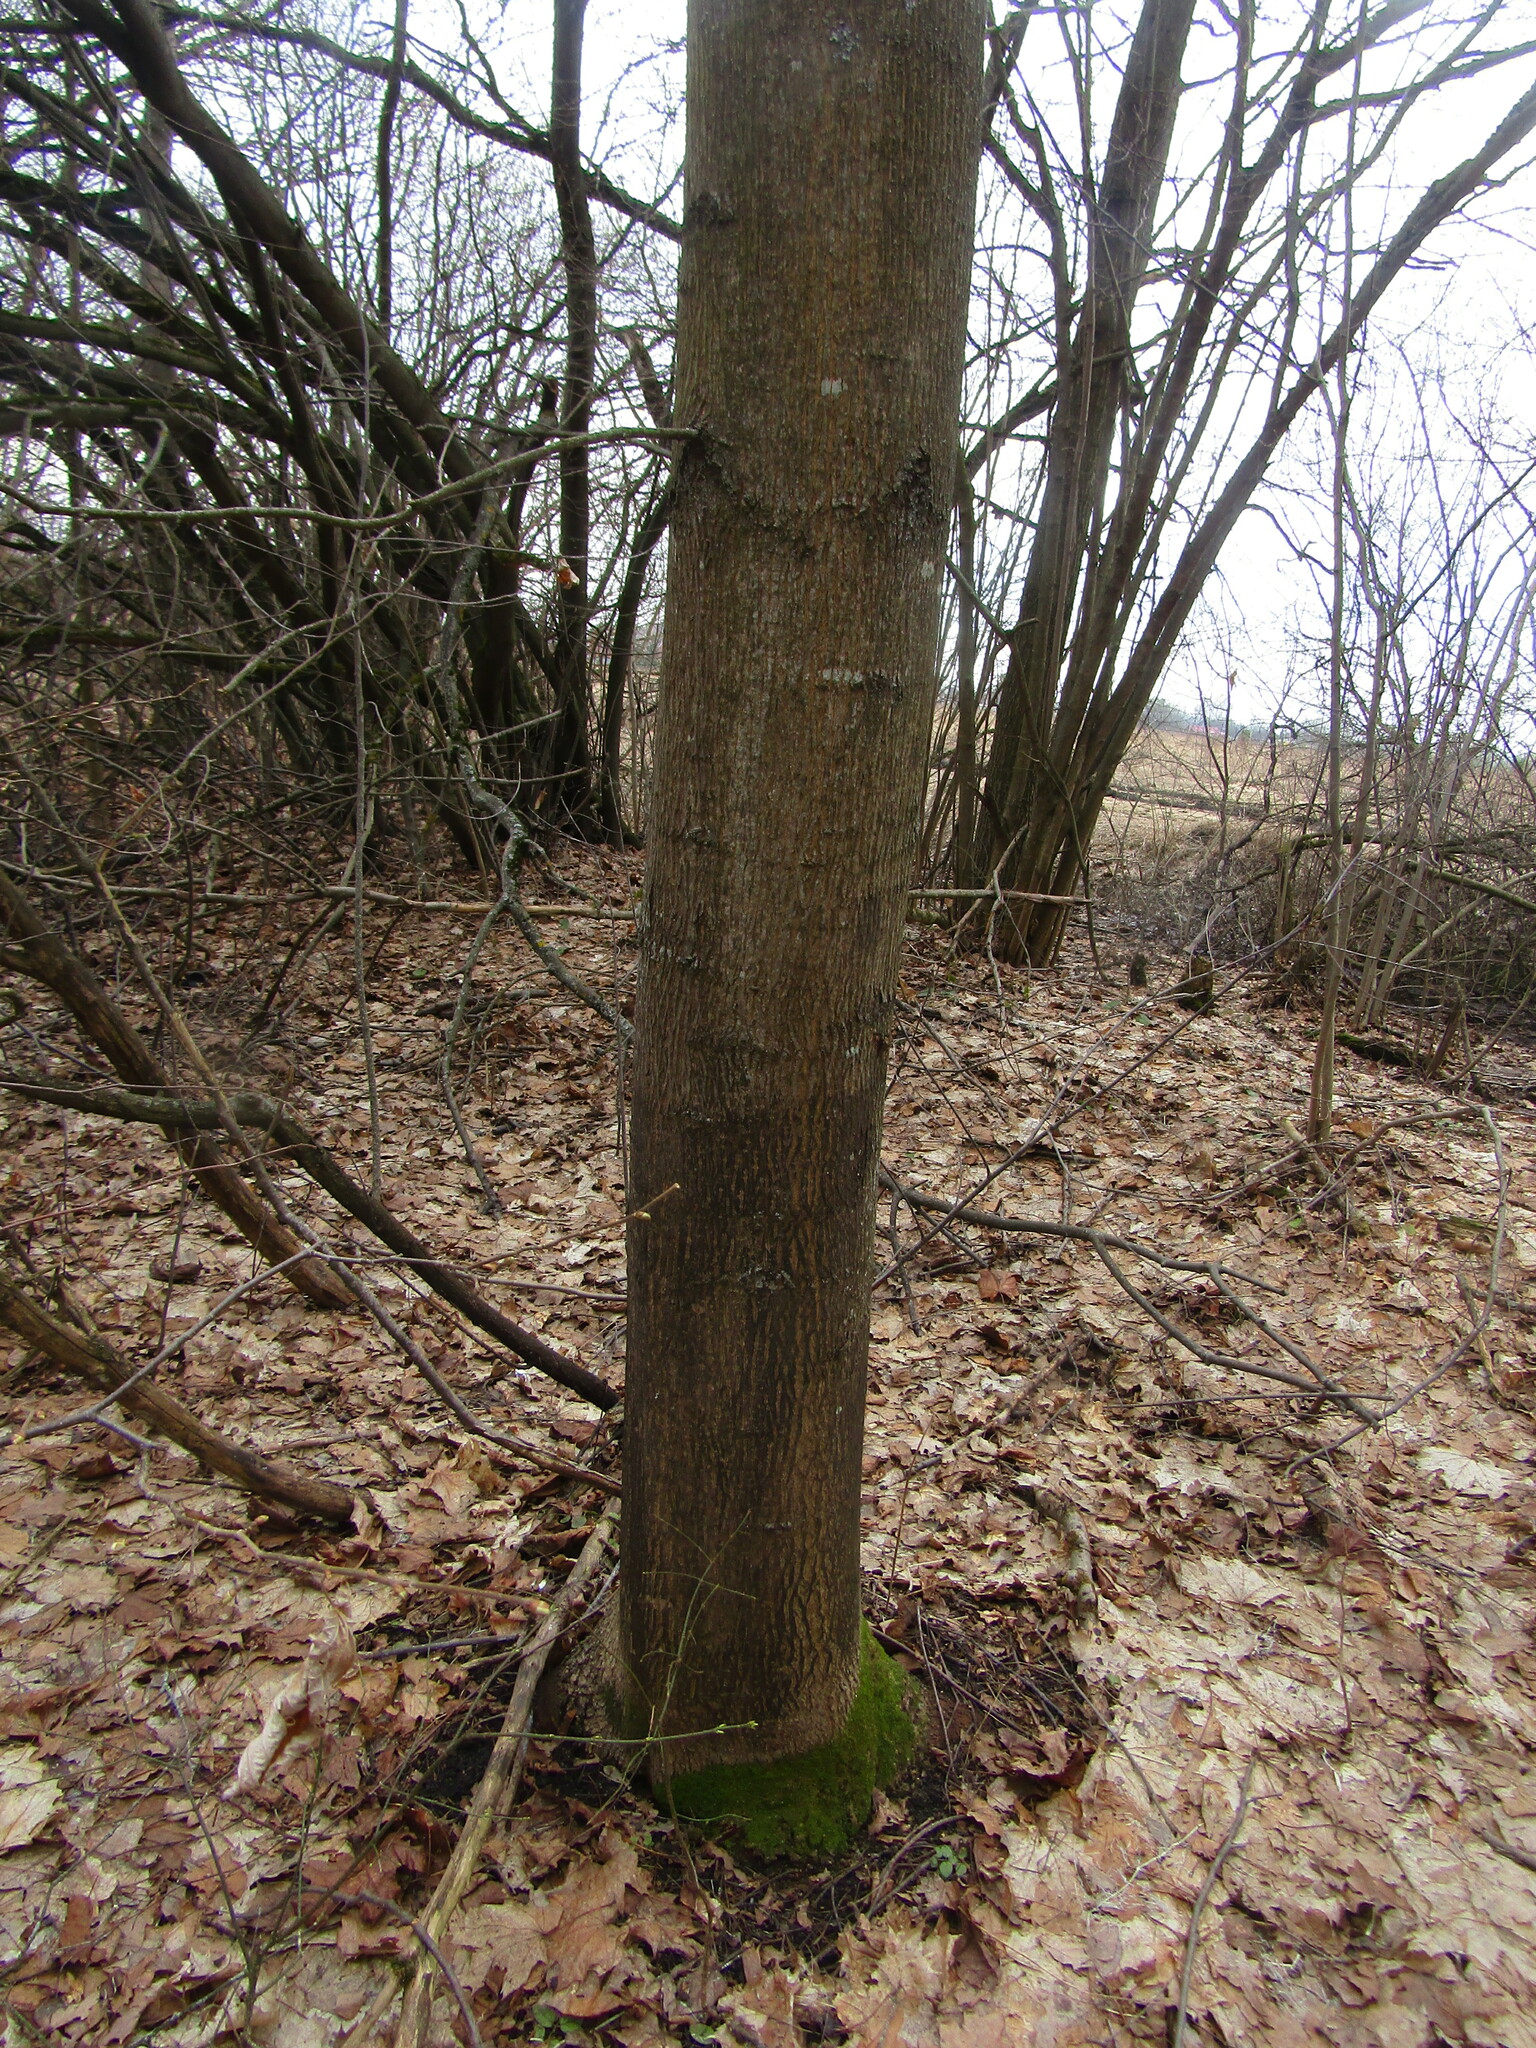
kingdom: Plantae
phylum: Tracheophyta
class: Magnoliopsida
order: Sapindales
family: Sapindaceae
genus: Acer
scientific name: Acer platanoides
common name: Norway maple
